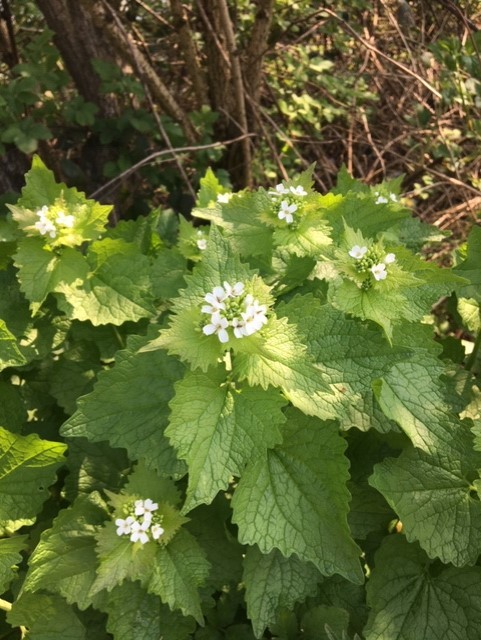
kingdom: Plantae
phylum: Tracheophyta
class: Magnoliopsida
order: Brassicales
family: Brassicaceae
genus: Alliaria
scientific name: Alliaria petiolata
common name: Garlic mustard
